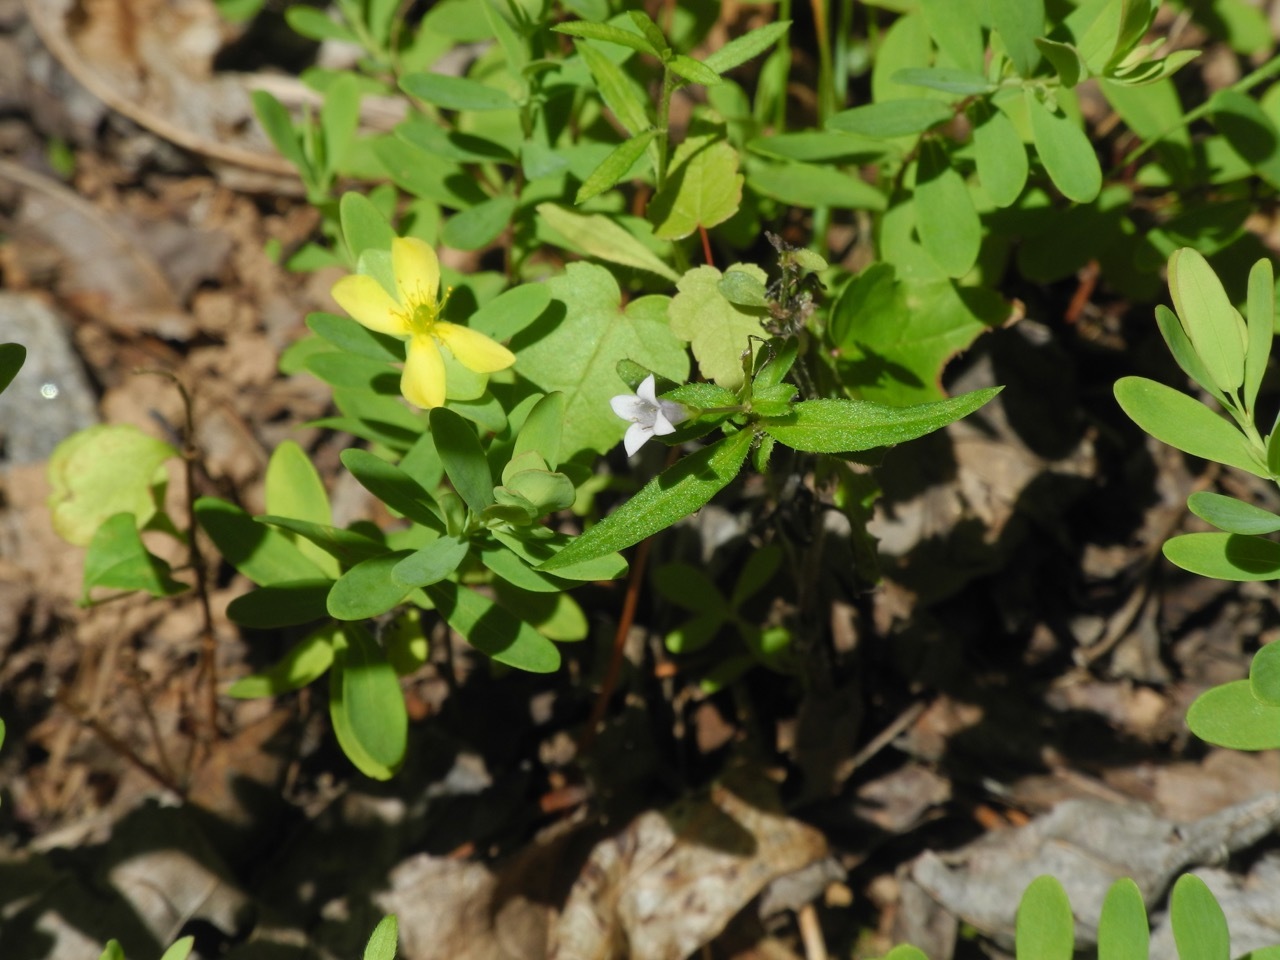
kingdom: Plantae
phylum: Tracheophyta
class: Magnoliopsida
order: Malpighiales
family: Hypericaceae
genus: Hypericum
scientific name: Hypericum hypericoides
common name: St. andrew's cross
